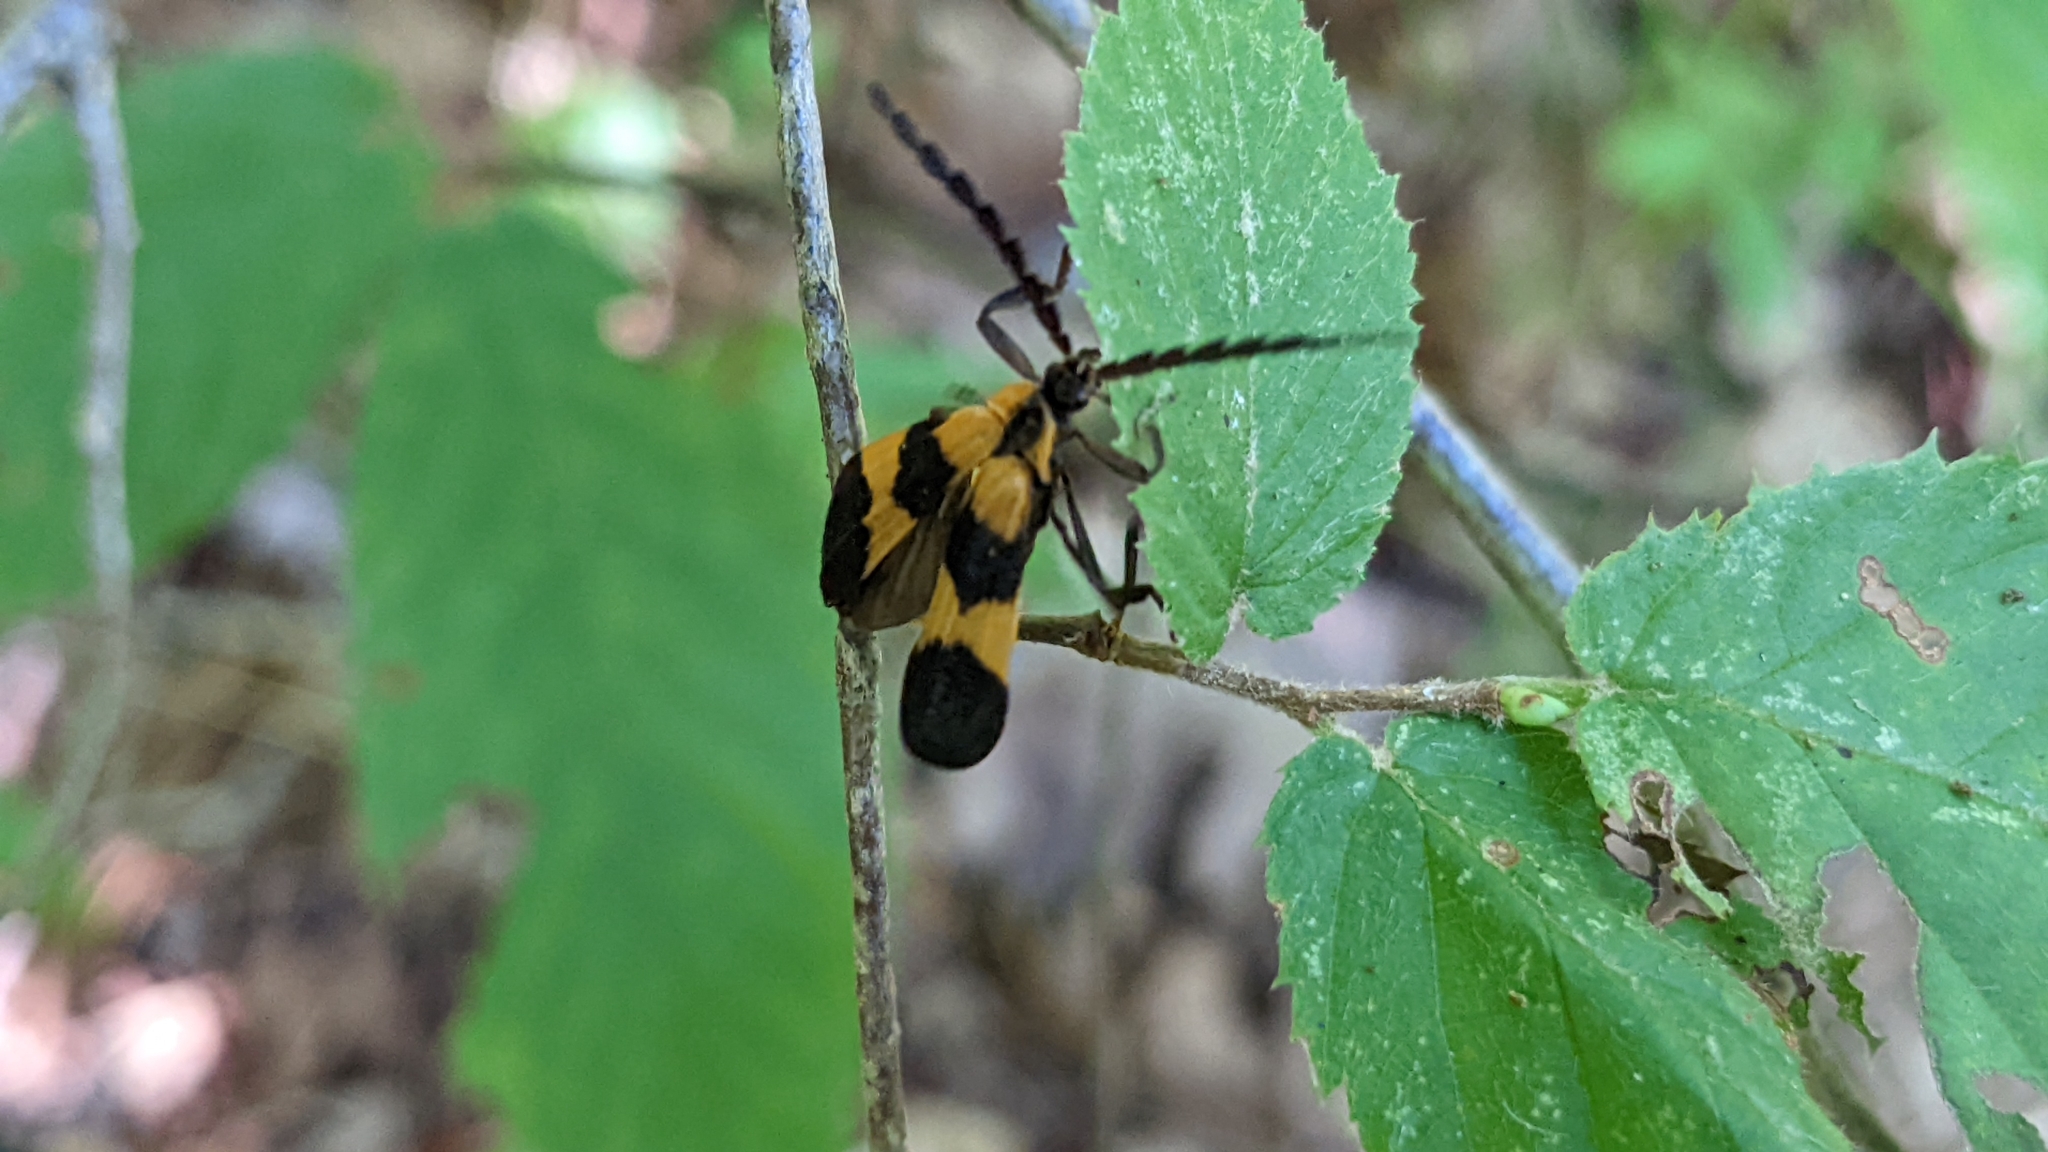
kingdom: Animalia
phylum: Arthropoda
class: Insecta
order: Coleoptera
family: Lycidae
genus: Calopteron
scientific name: Calopteron reticulatum
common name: Banded net-winged beetle
